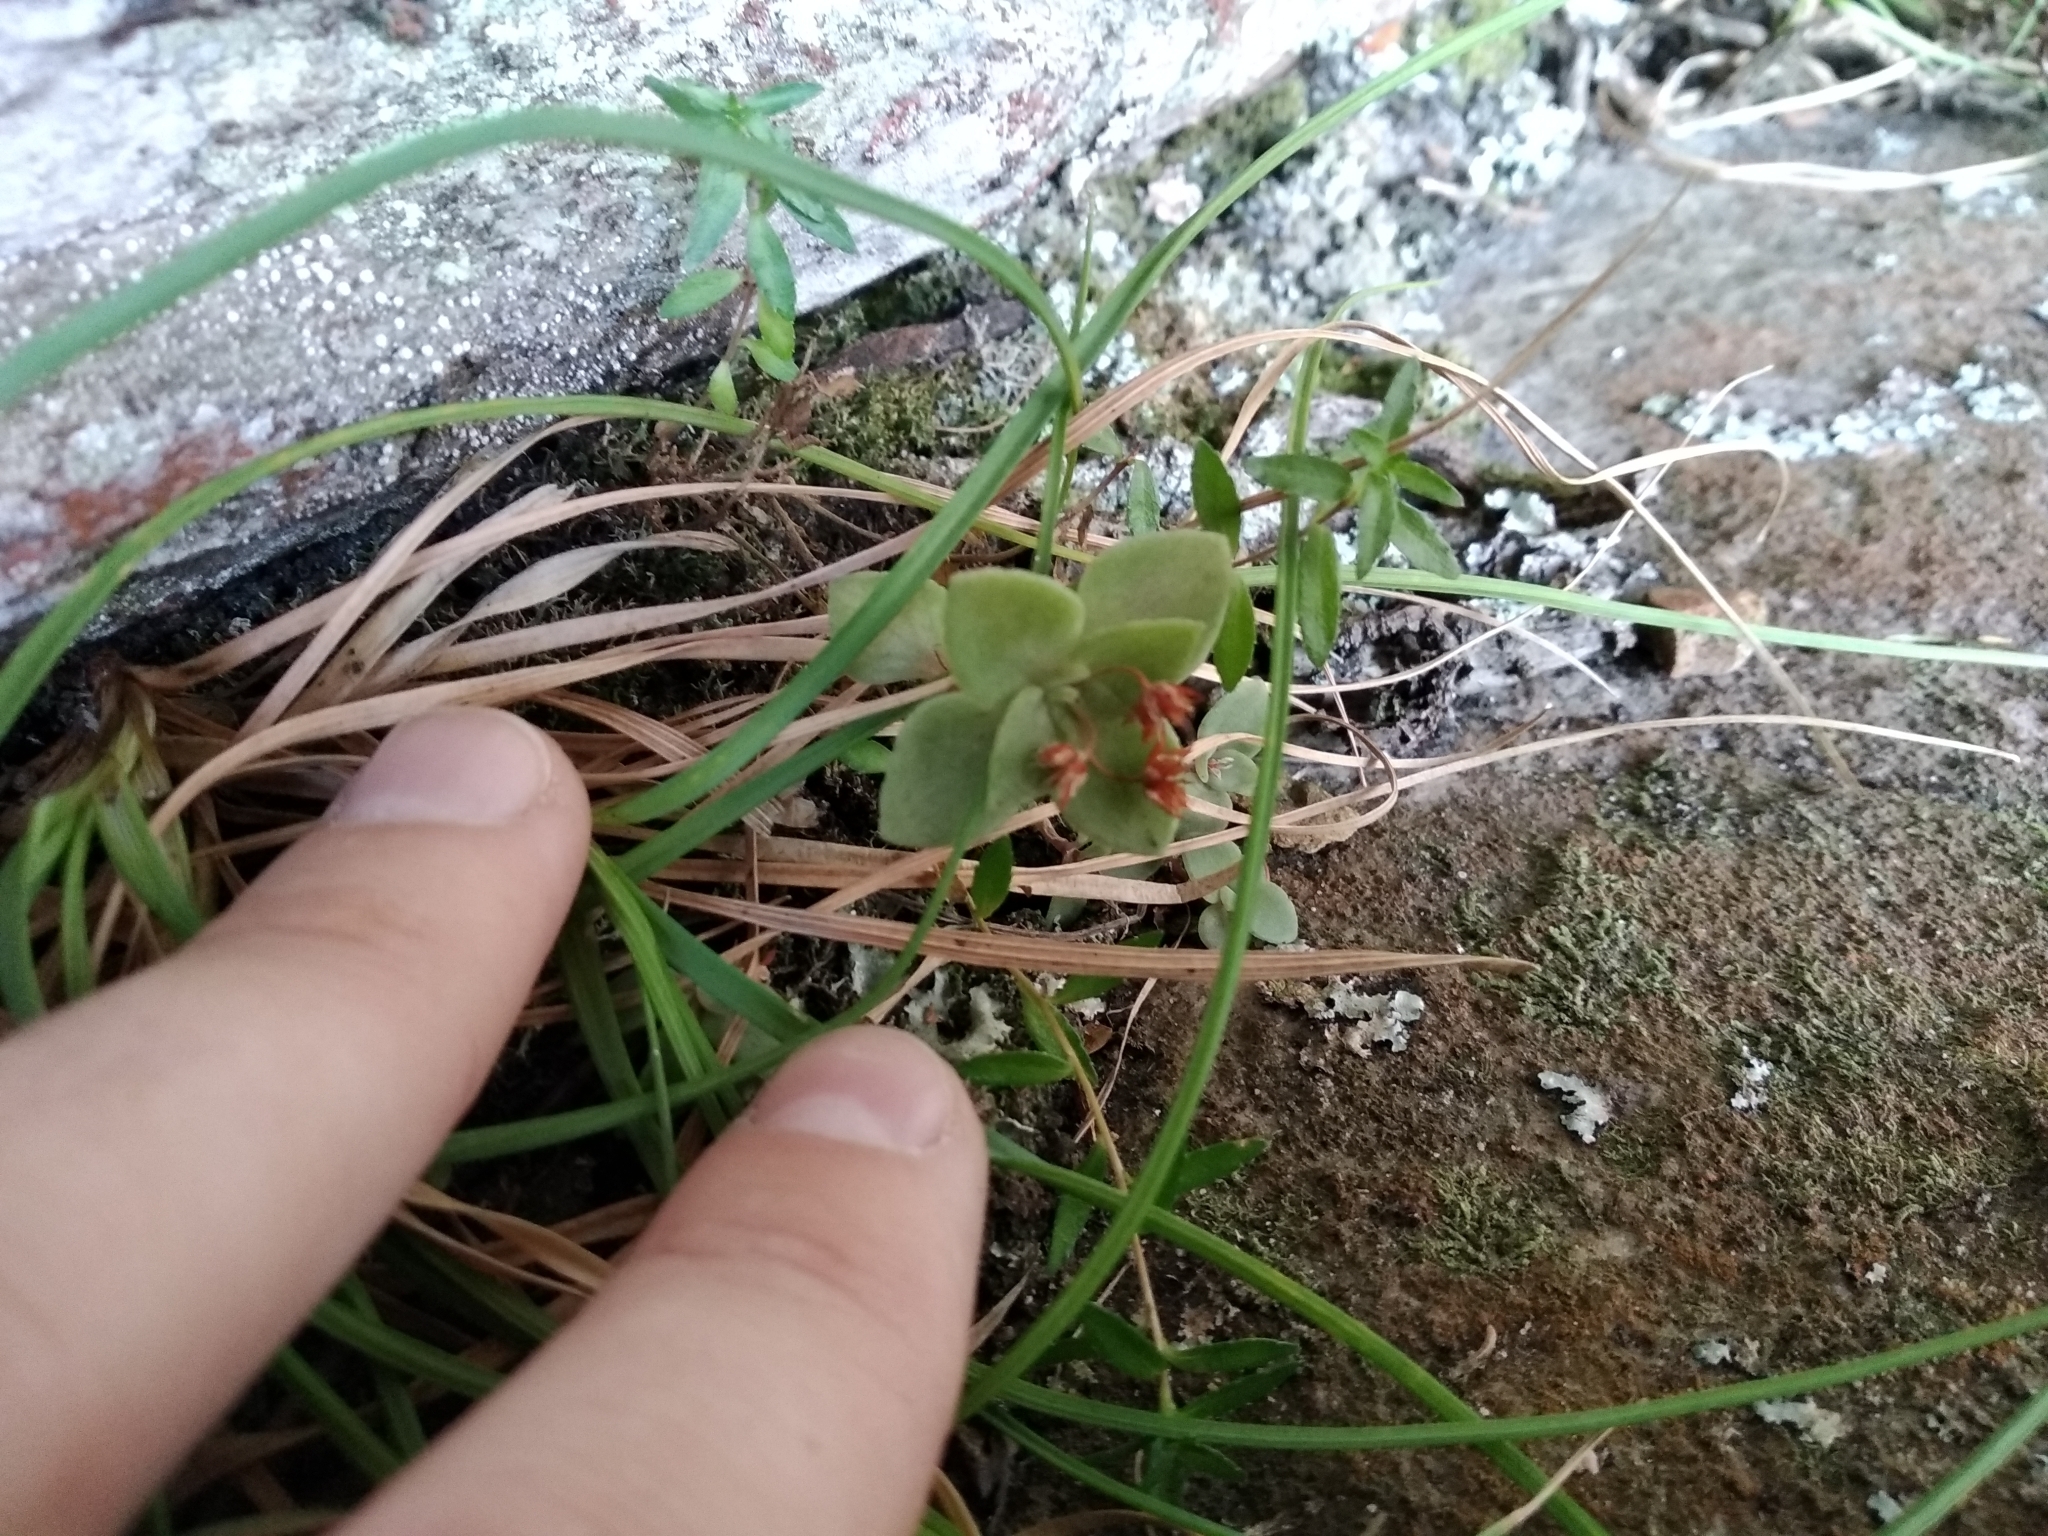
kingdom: Plantae
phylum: Tracheophyta
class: Magnoliopsida
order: Saxifragales
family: Crassulaceae
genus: Crassula
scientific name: Crassula pellucida
